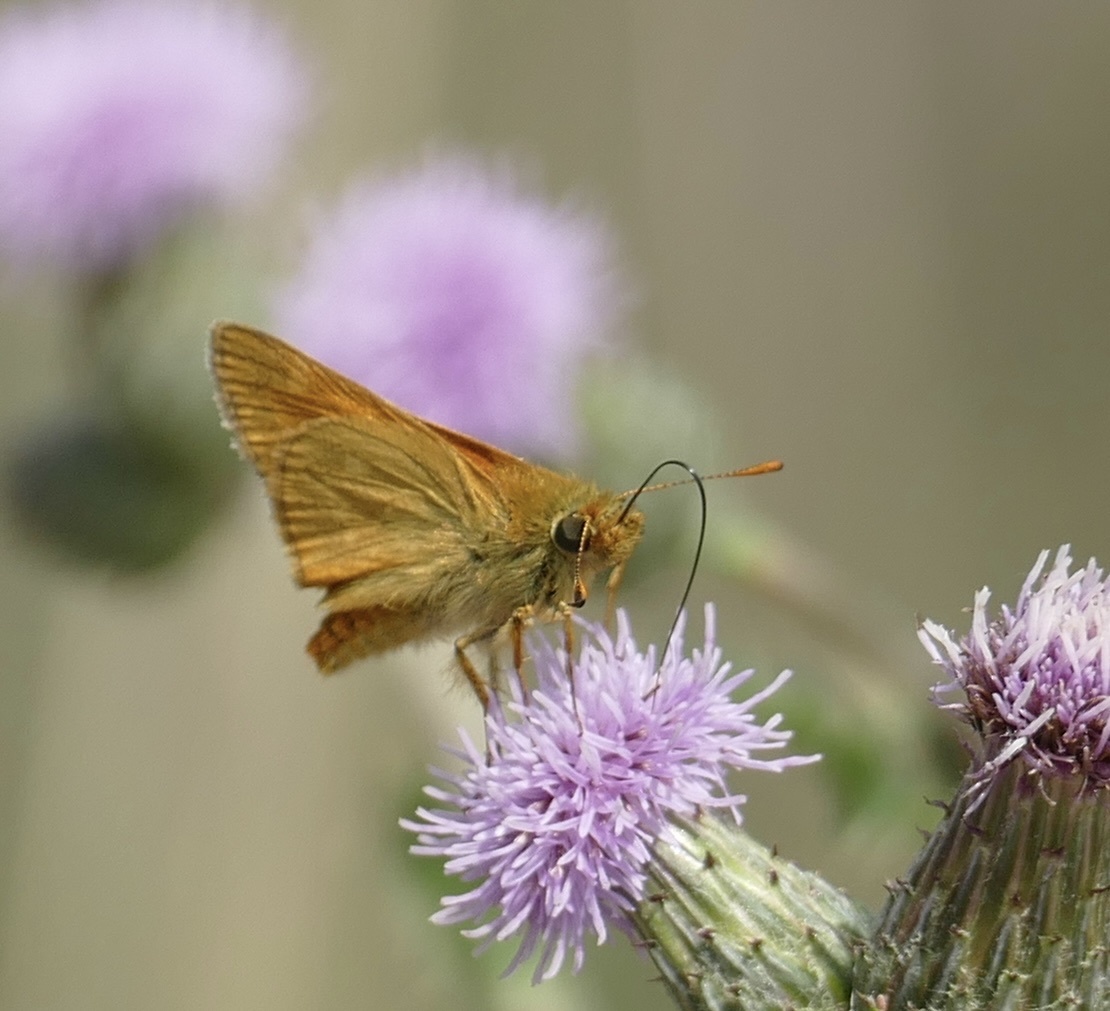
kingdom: Animalia
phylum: Arthropoda
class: Insecta
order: Lepidoptera
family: Hesperiidae
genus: Ochlodes
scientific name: Ochlodes venata
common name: Large skipper
